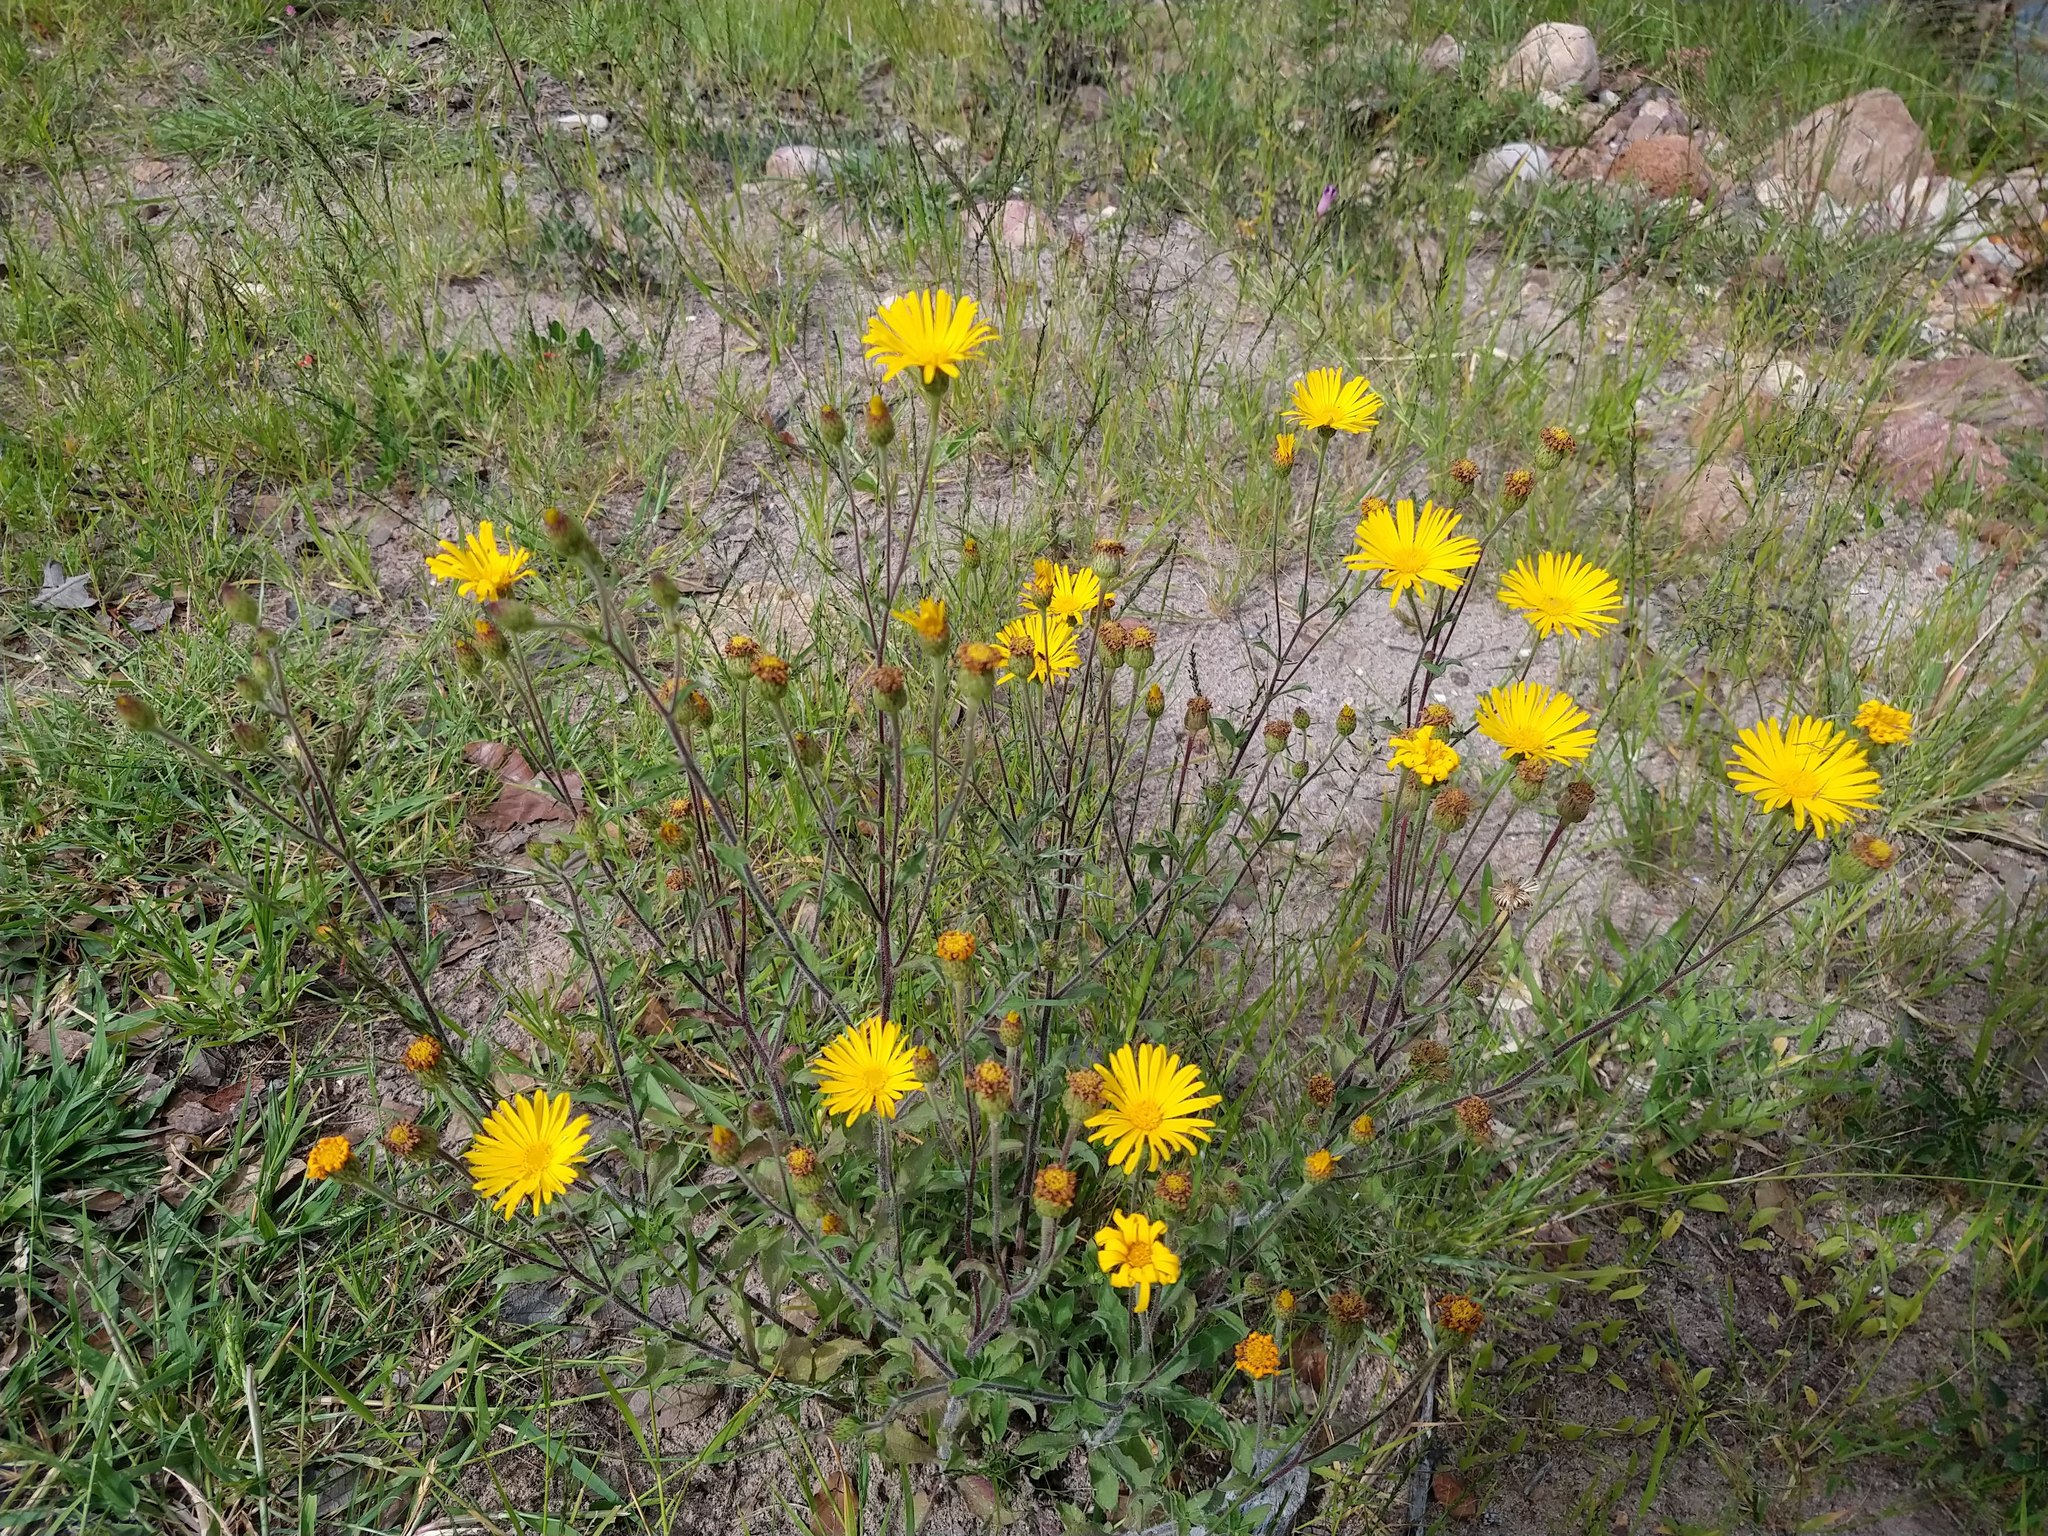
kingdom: Plantae
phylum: Tracheophyta
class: Magnoliopsida
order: Asterales
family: Asteraceae
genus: Heterotheca
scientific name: Heterotheca inuloides
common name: False arnica
